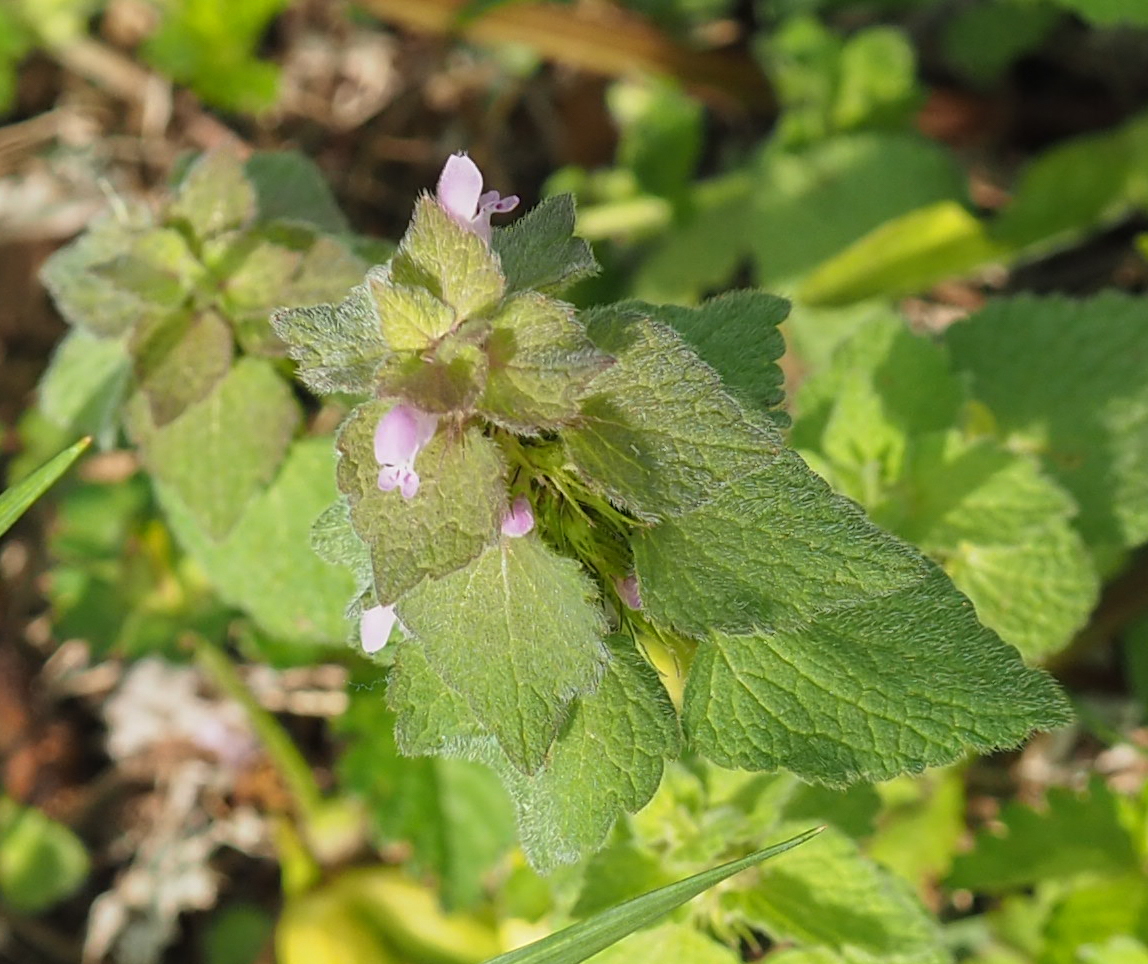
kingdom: Plantae
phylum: Tracheophyta
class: Magnoliopsida
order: Lamiales
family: Lamiaceae
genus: Lamium
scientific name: Lamium purpureum
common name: Red dead-nettle
